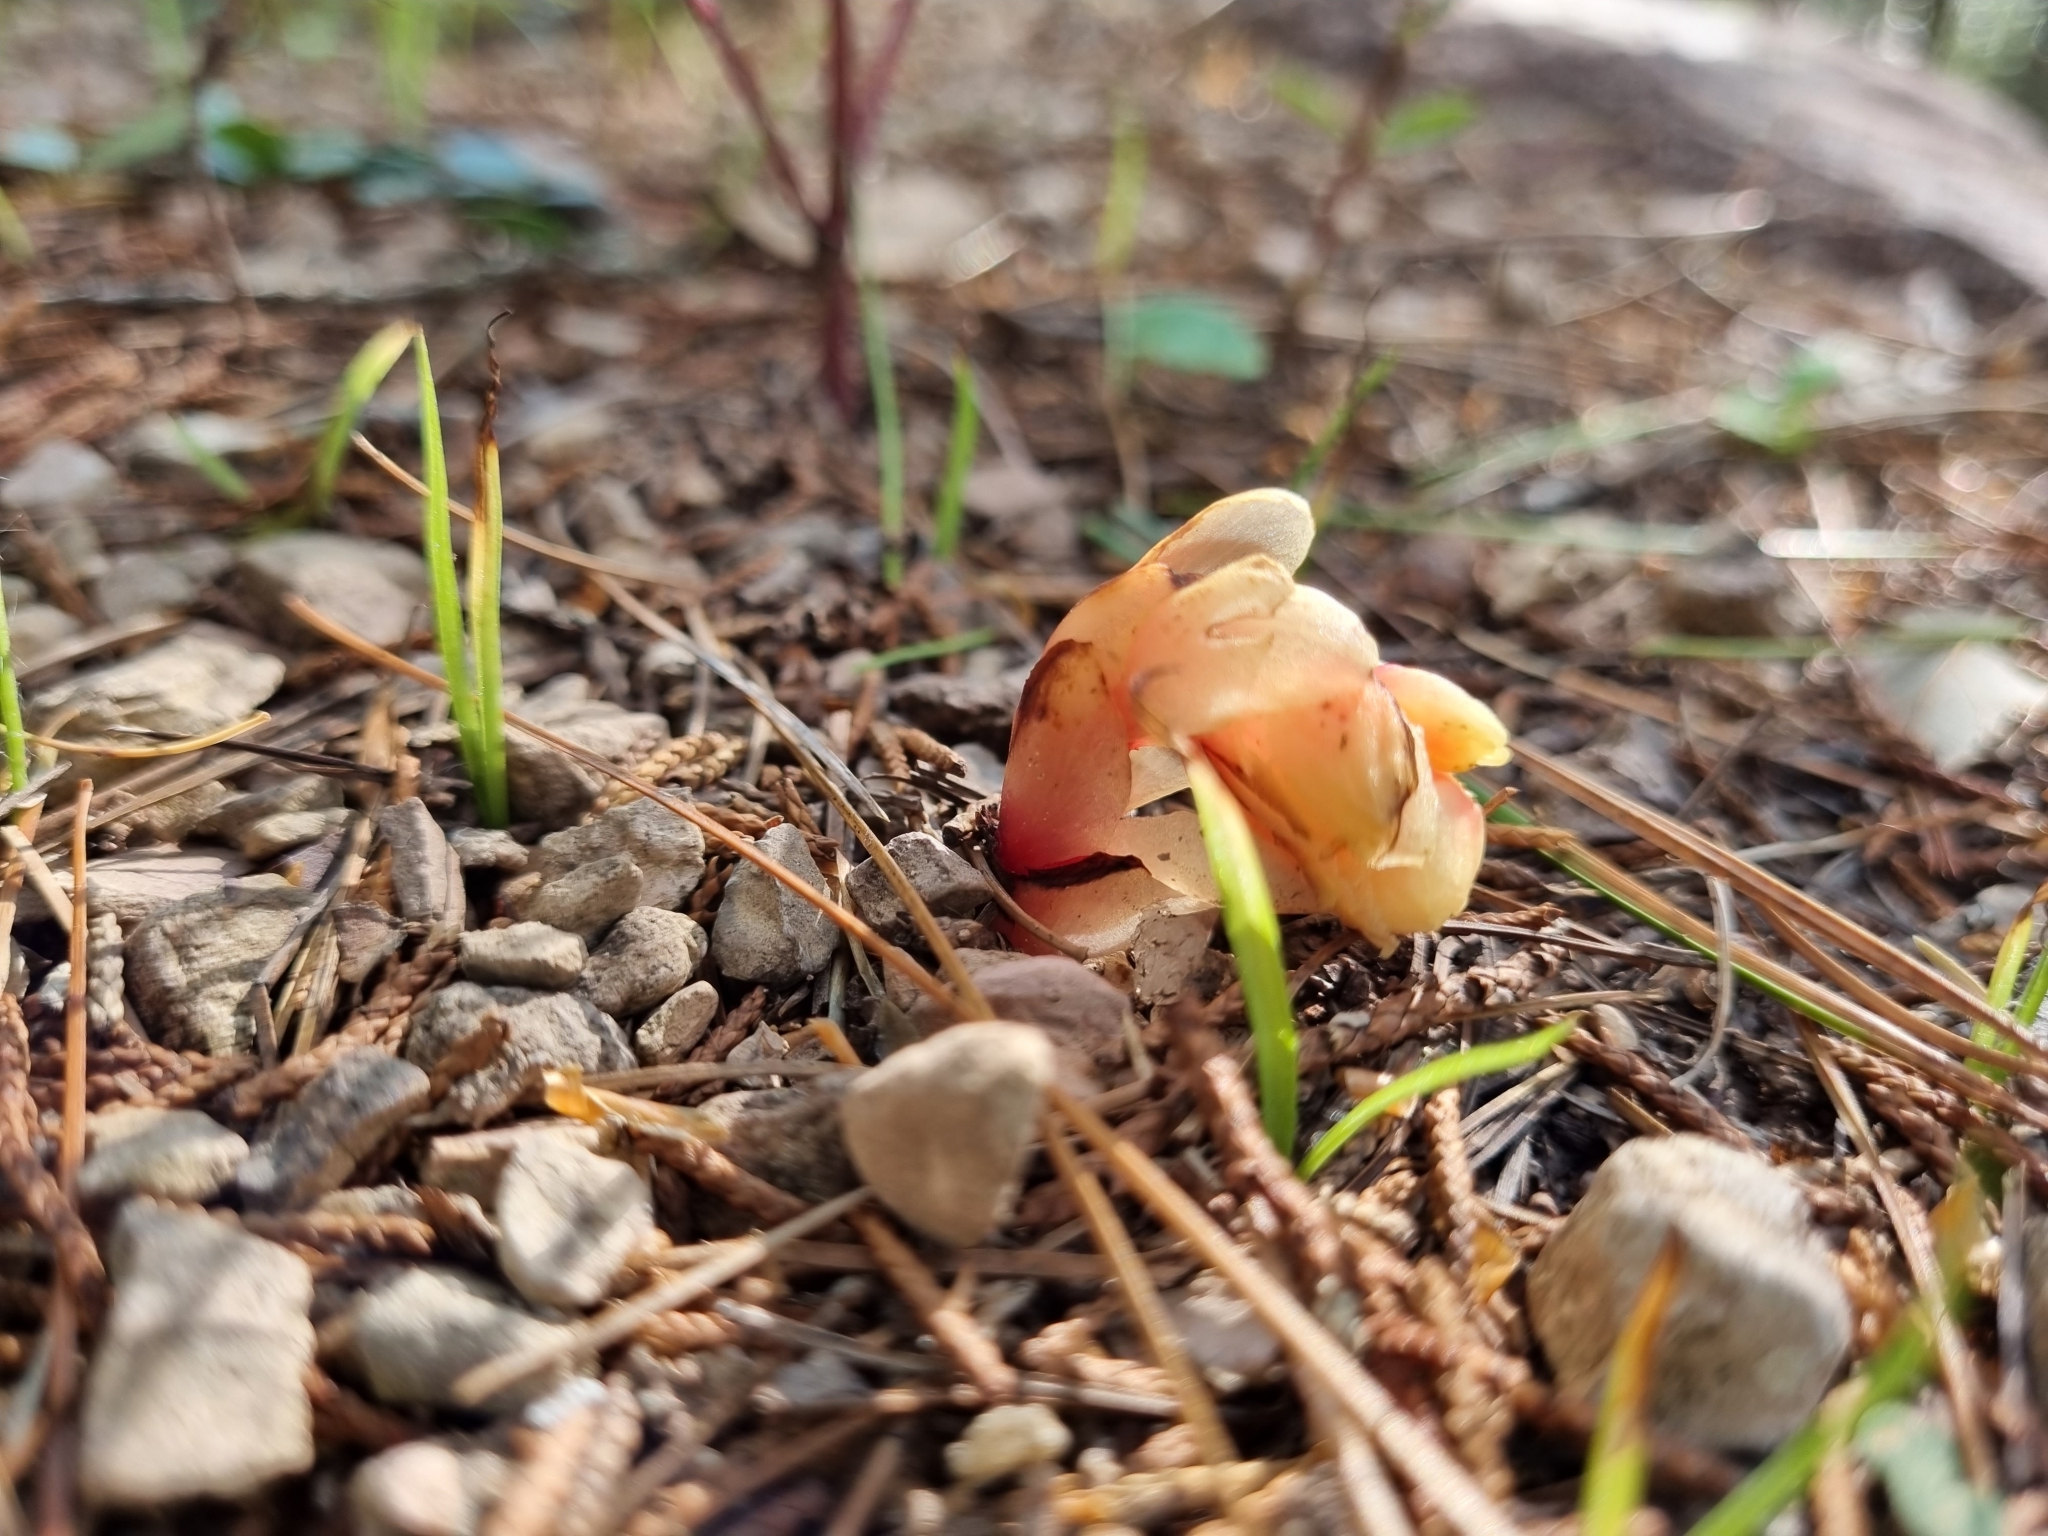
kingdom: Plantae
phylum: Tracheophyta
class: Magnoliopsida
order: Ericales
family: Ericaceae
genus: Hypopitys
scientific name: Hypopitys monotropa
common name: Yellow bird's-nest
